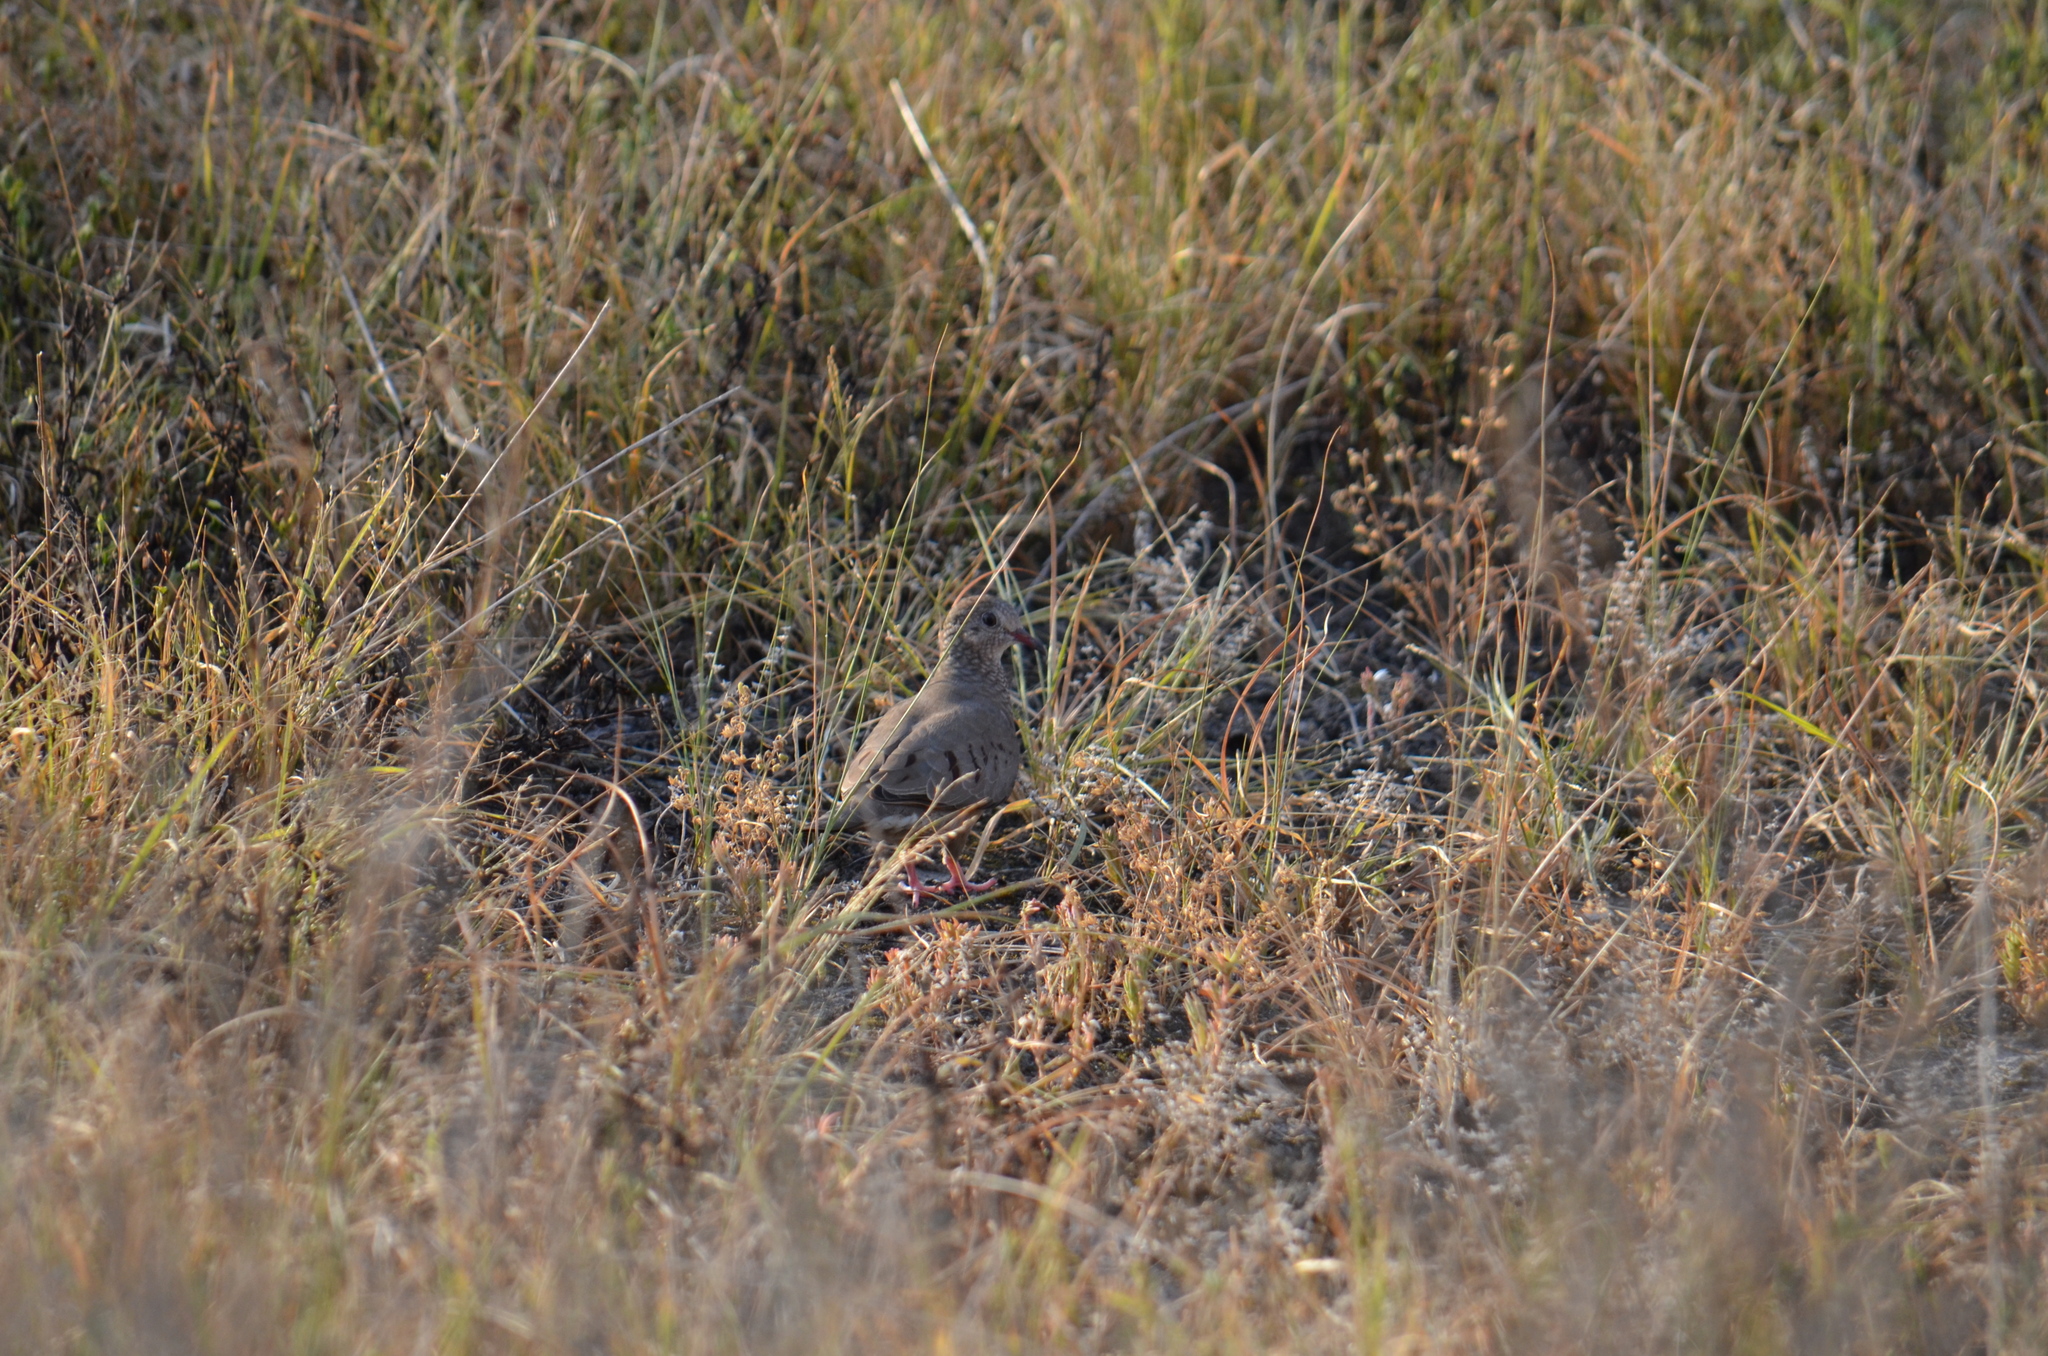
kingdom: Animalia
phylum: Chordata
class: Aves
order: Columbiformes
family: Columbidae
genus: Columbina
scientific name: Columbina passerina
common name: Common ground-dove
